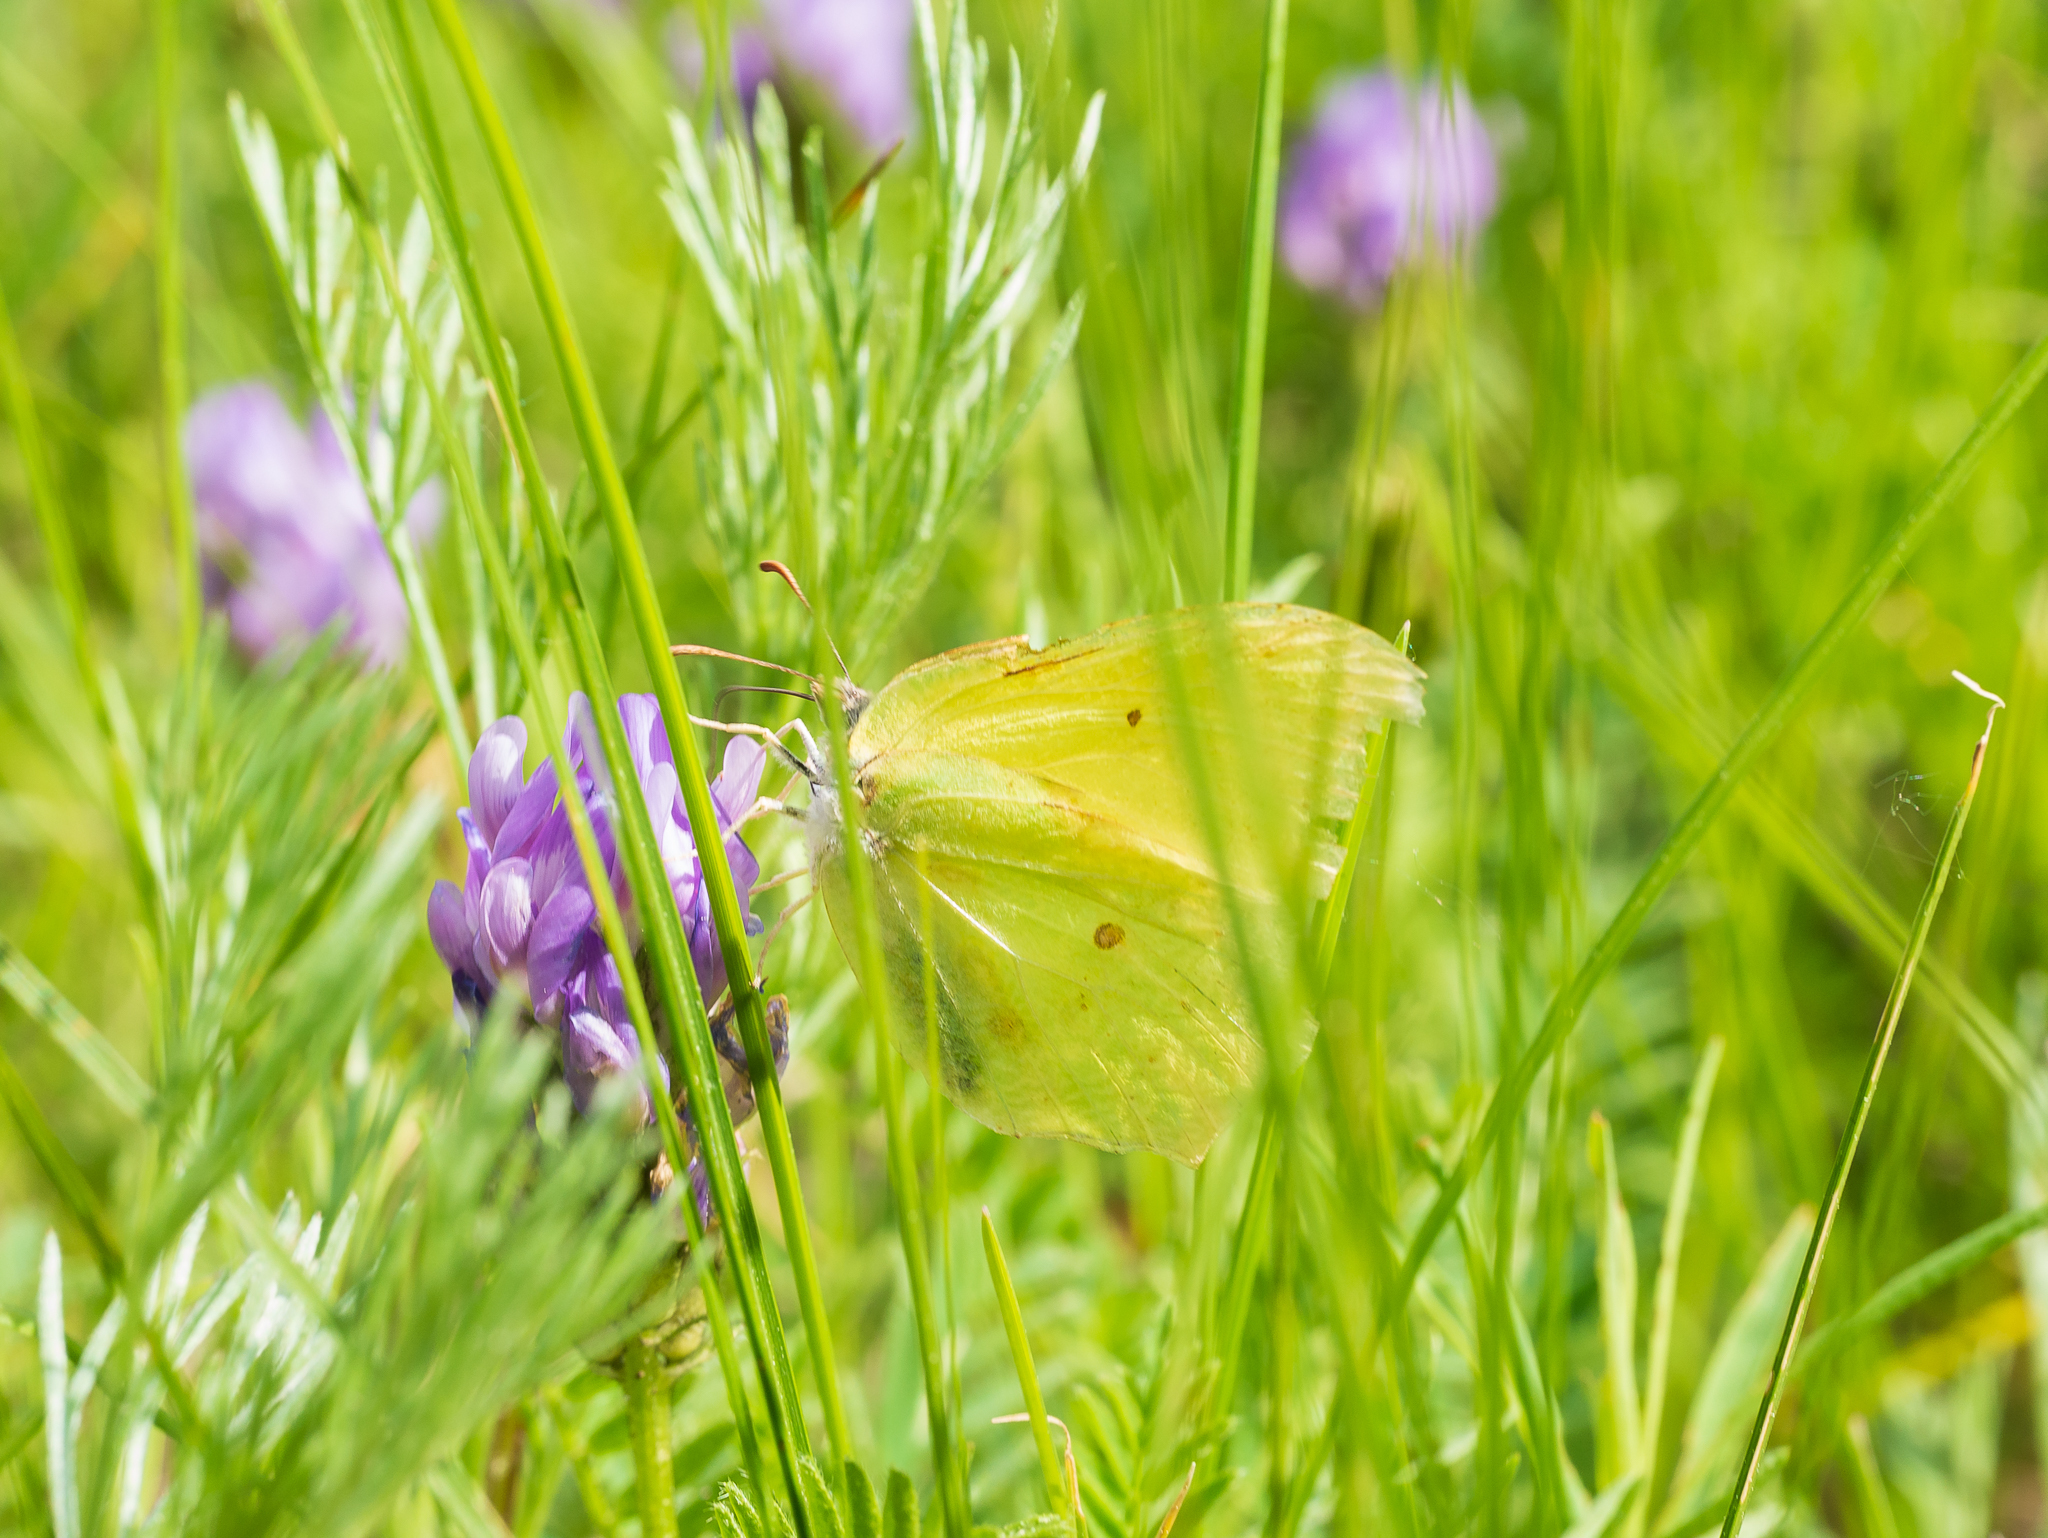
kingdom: Animalia
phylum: Arthropoda
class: Insecta
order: Lepidoptera
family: Pieridae
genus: Gonepteryx
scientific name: Gonepteryx rhamni
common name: Brimstone
